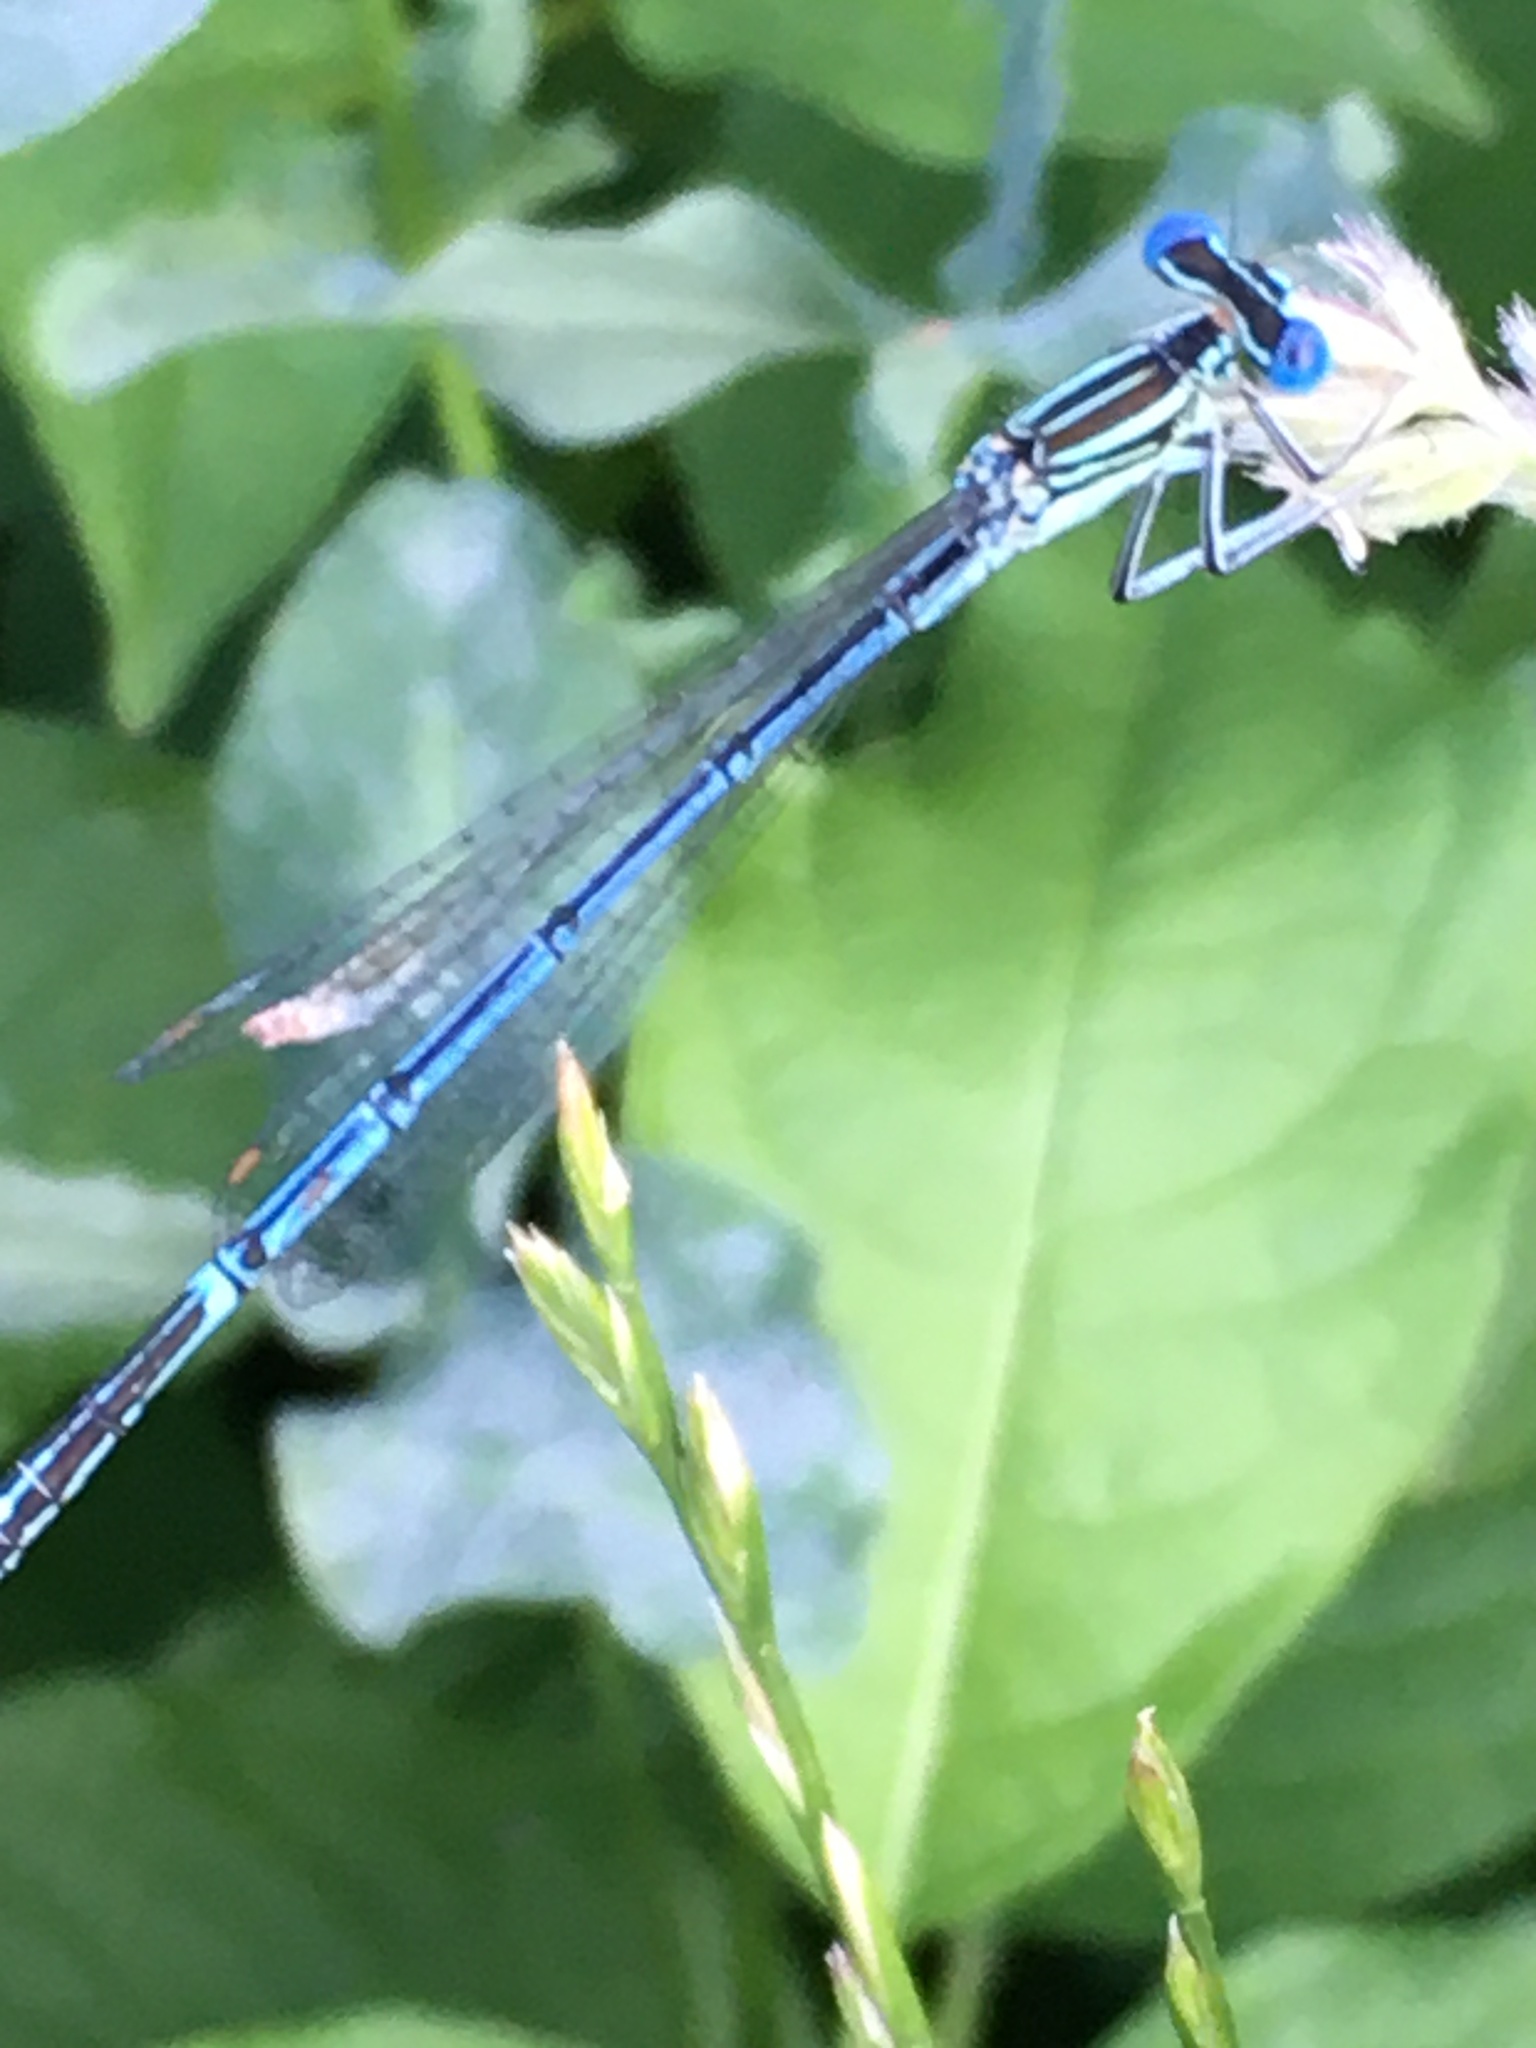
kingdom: Animalia
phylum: Arthropoda
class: Insecta
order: Odonata
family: Platycnemididae
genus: Platycnemis
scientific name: Platycnemis pennipes
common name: White-legged damselfly
